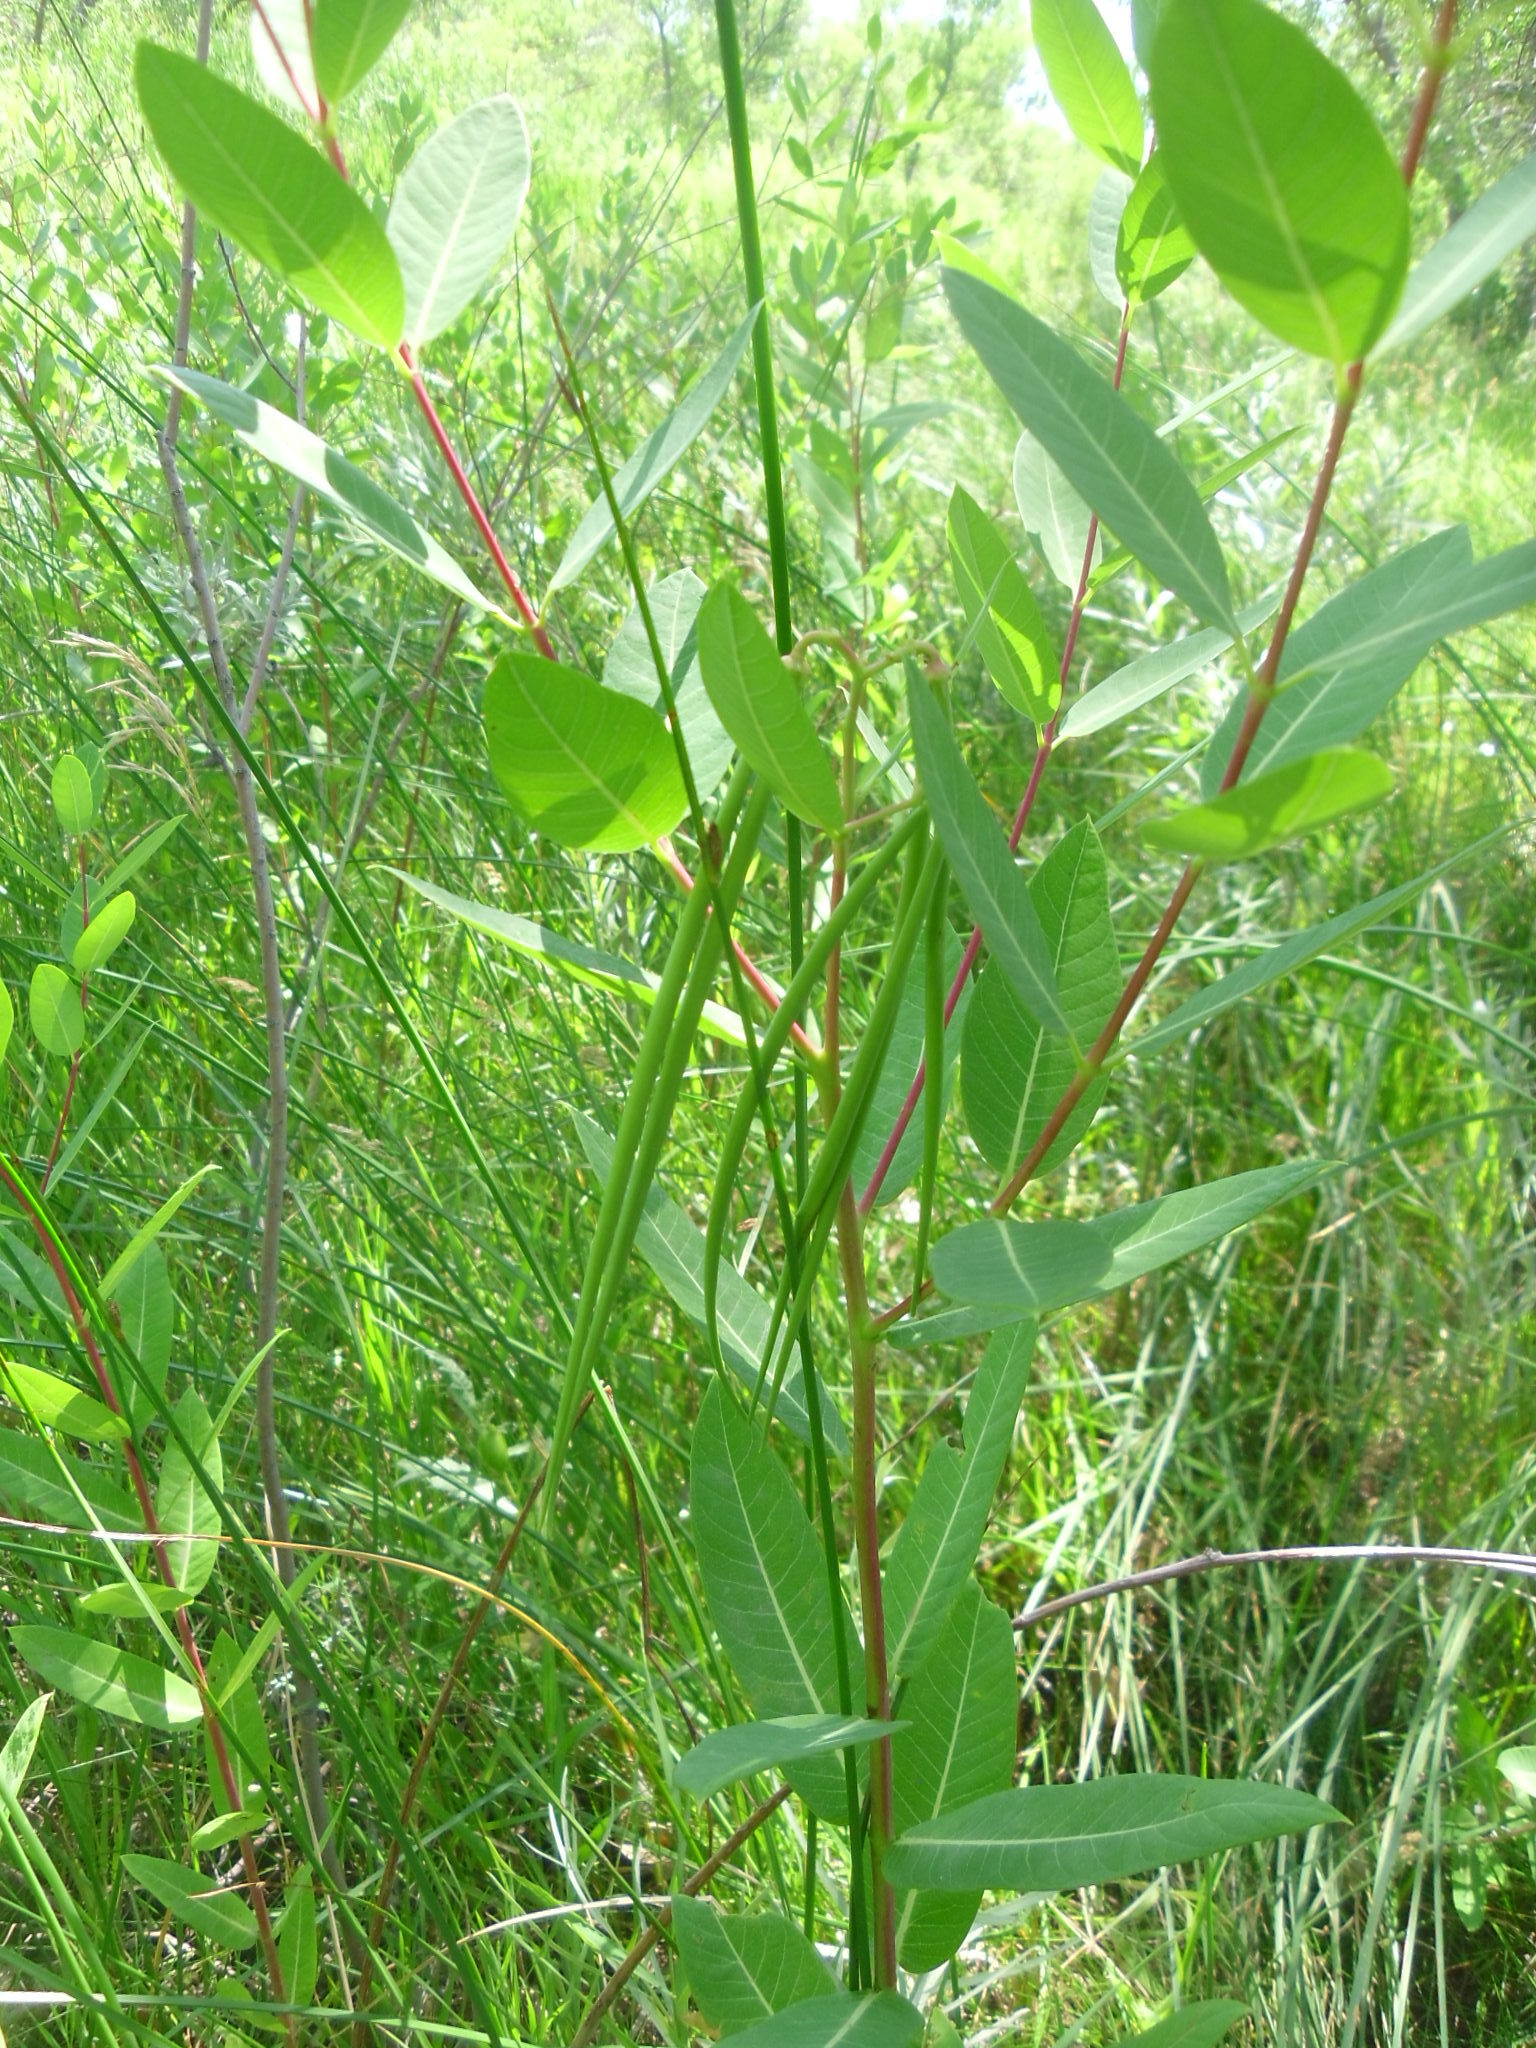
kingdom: Plantae
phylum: Tracheophyta
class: Magnoliopsida
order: Gentianales
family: Apocynaceae
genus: Apocynum
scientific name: Apocynum cannabinum
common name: Hemp dogbane
